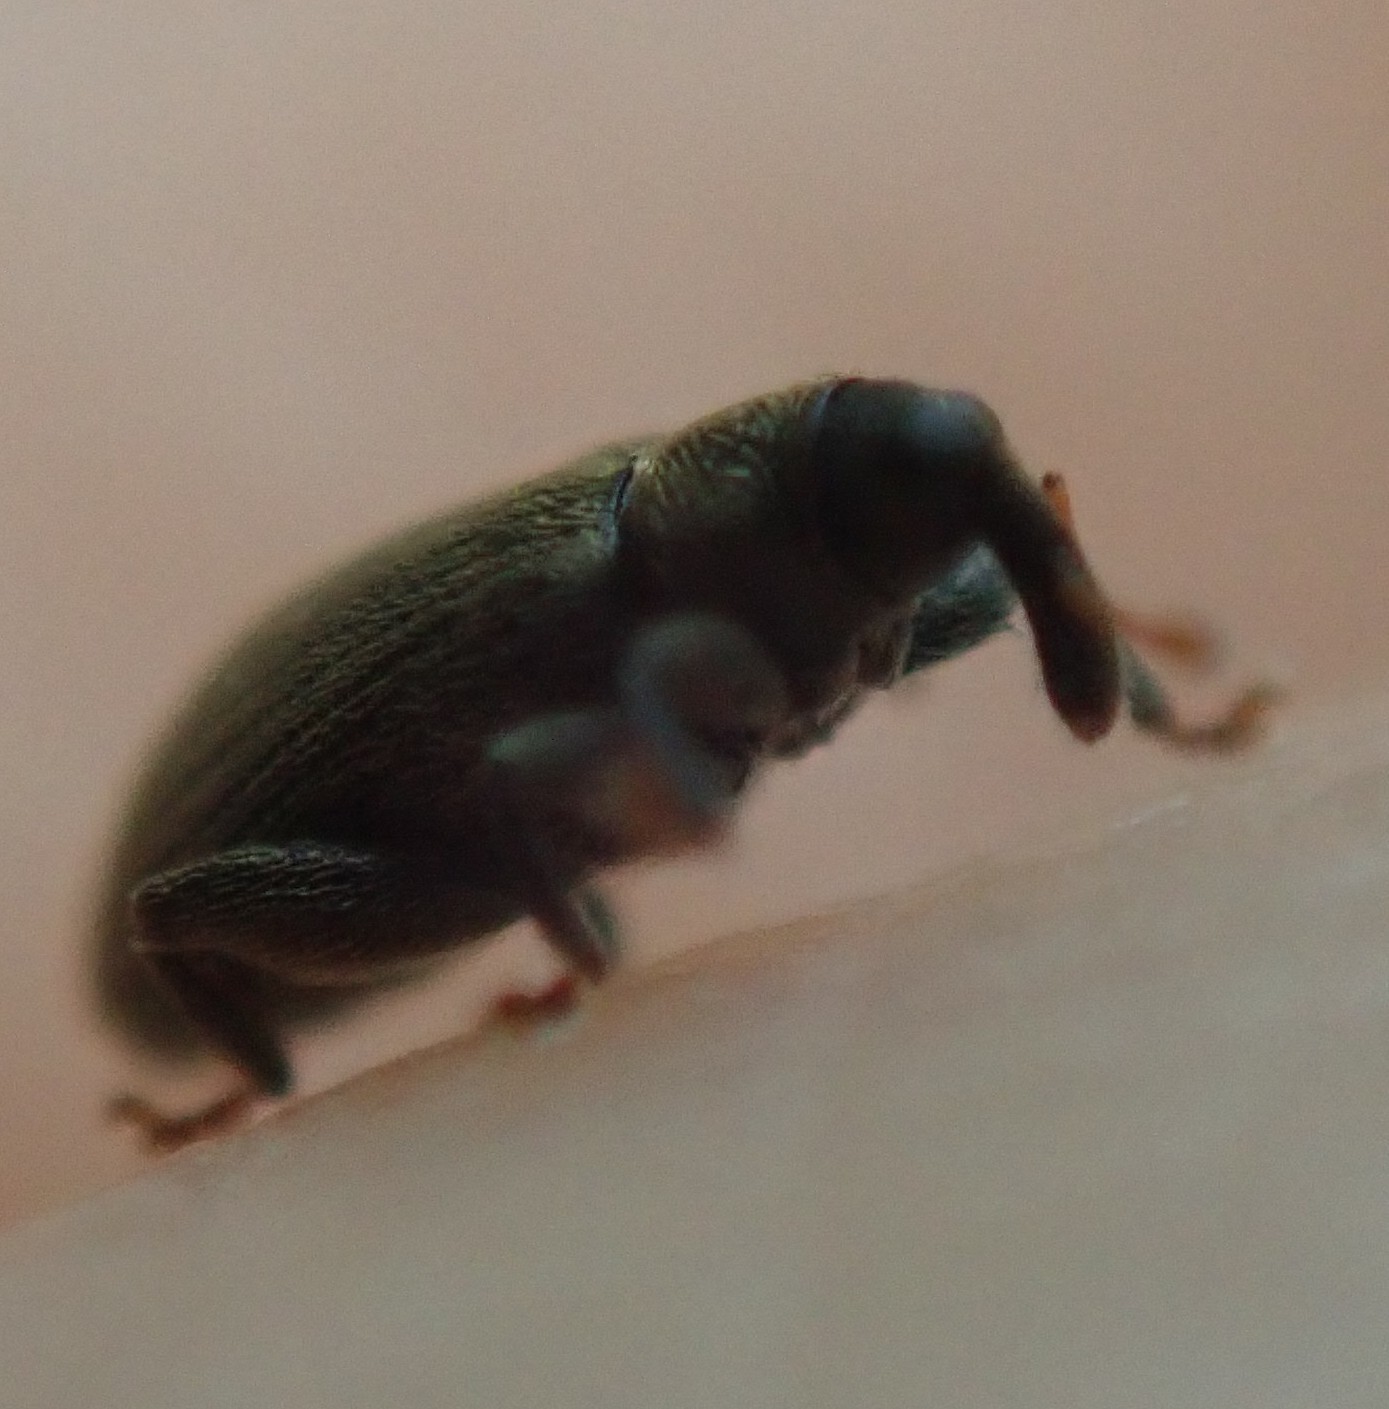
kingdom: Animalia
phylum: Arthropoda
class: Insecta
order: Coleoptera
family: Curculionidae
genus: Orchestes
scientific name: Orchestes fagi
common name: Beech leaf miner
